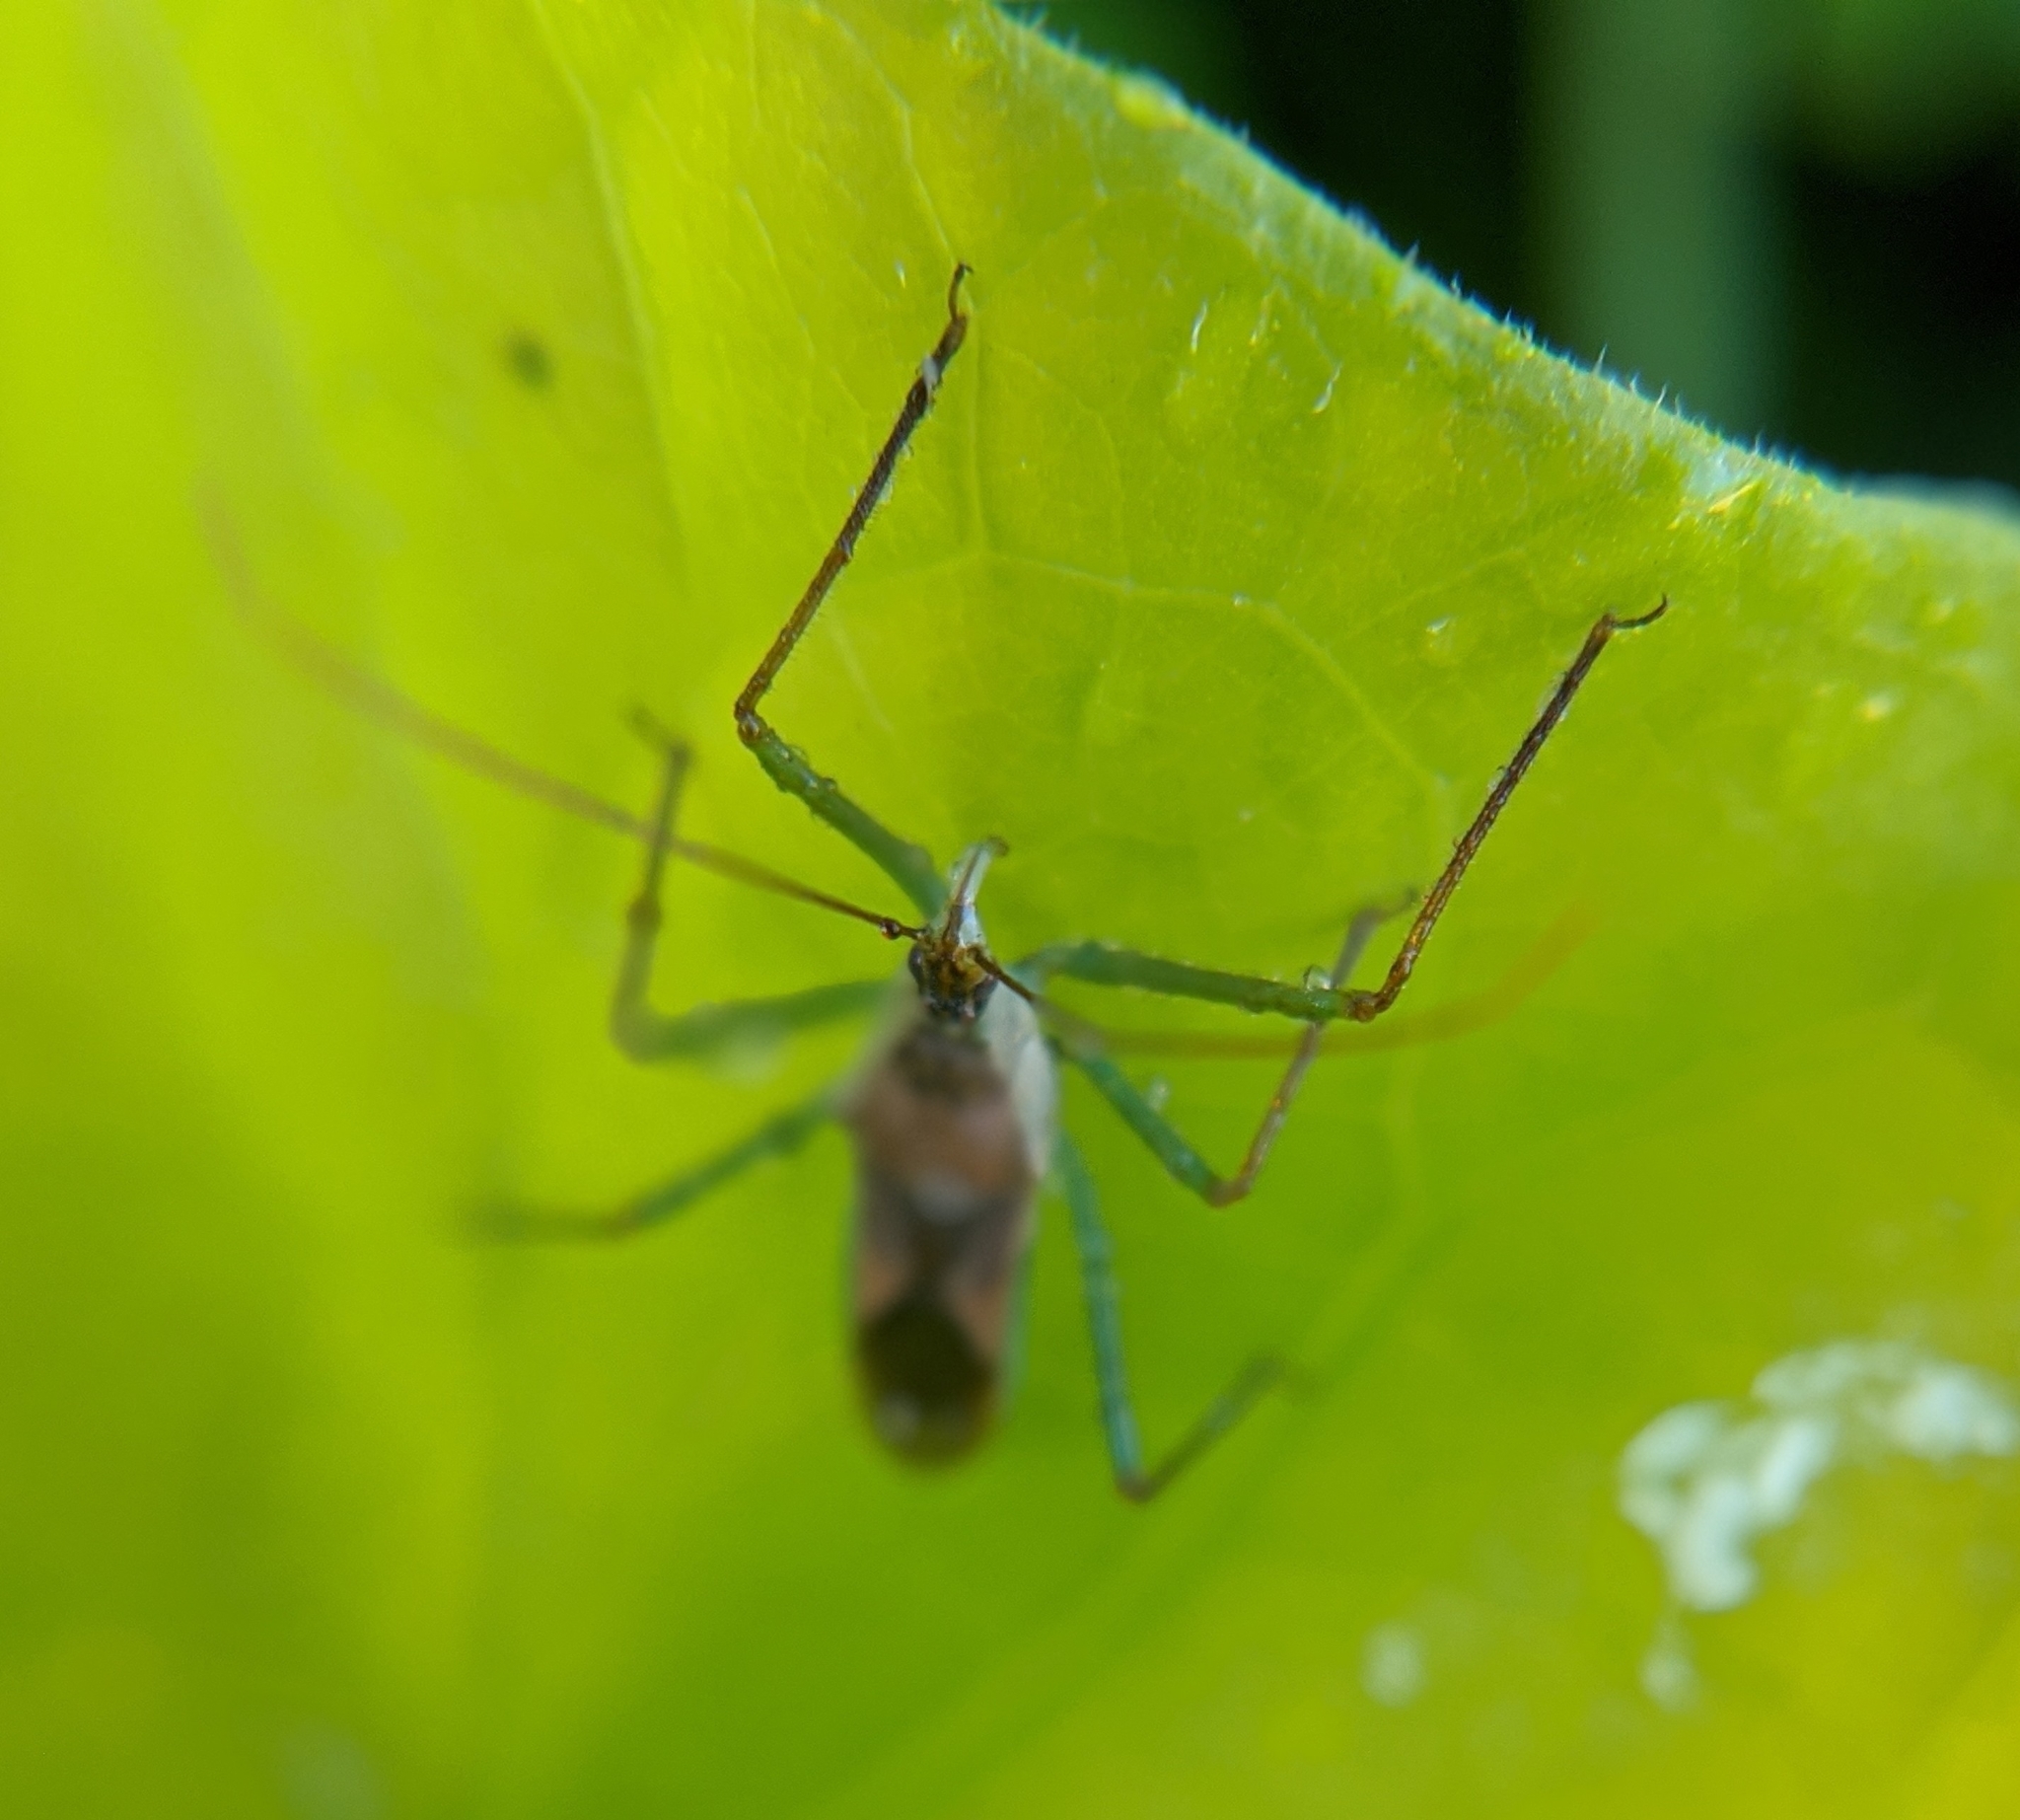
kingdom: Animalia
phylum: Arthropoda
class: Insecta
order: Hemiptera
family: Reduviidae
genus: Zelus
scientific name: Zelus renardii
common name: Assassin bug
